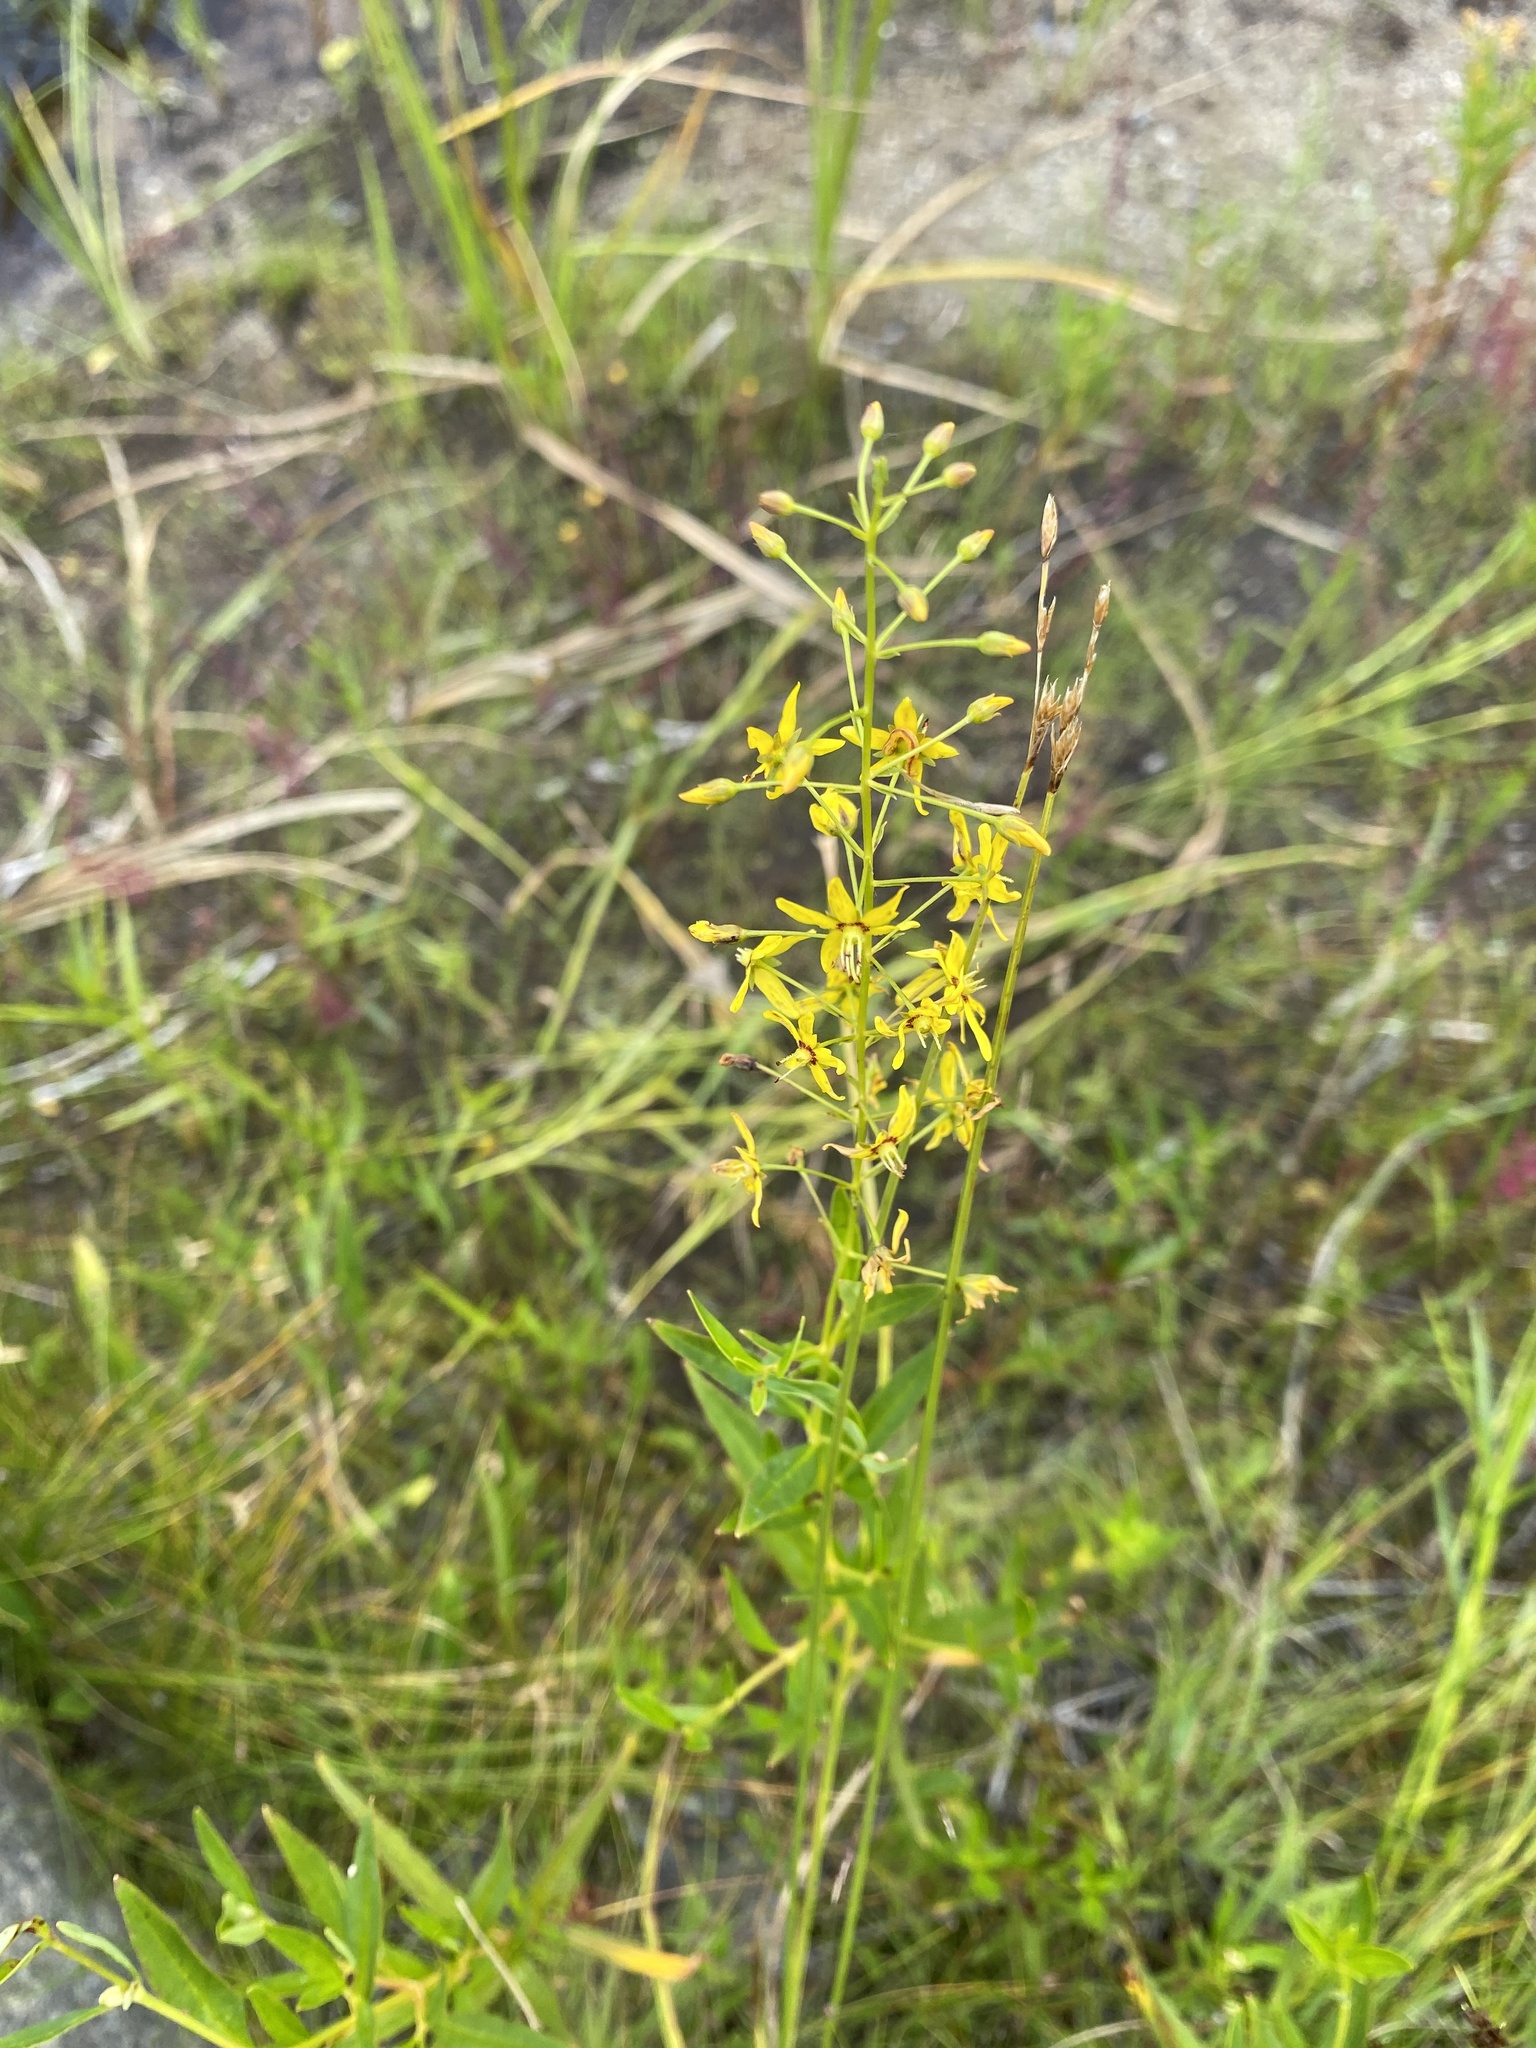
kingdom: Plantae
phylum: Tracheophyta
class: Magnoliopsida
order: Ericales
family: Primulaceae
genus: Lysimachia
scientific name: Lysimachia terrestris
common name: Lake loosestrife
